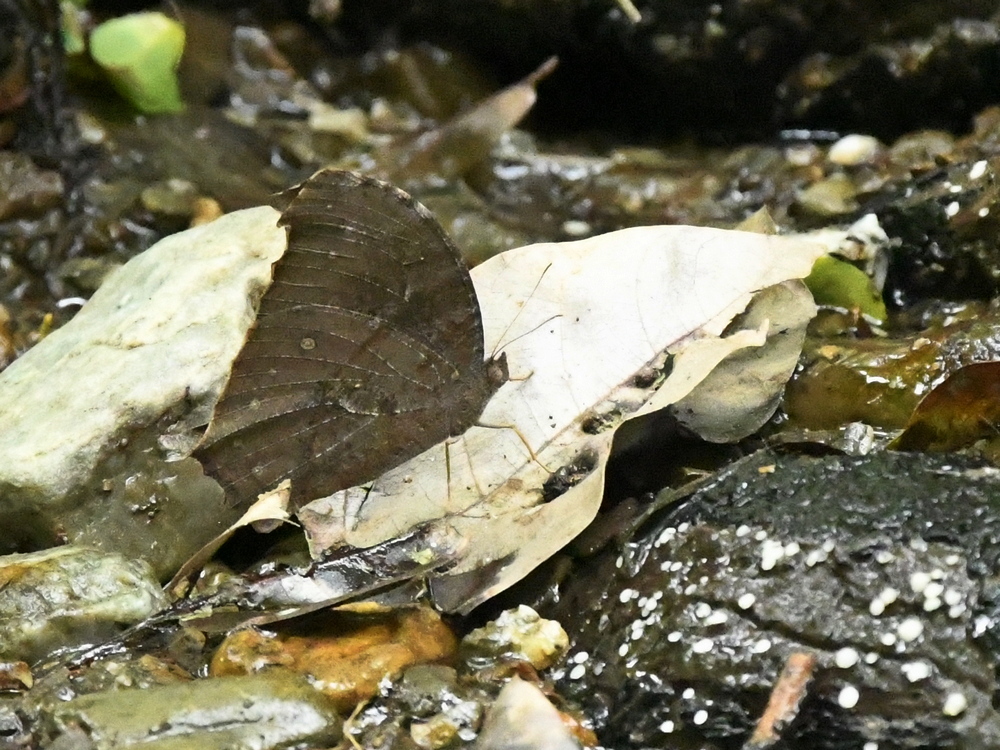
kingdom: Animalia
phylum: Arthropoda
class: Insecta
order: Lepidoptera
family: Nymphalidae
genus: Melanitis
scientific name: Melanitis phedima
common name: Dark evening brown
